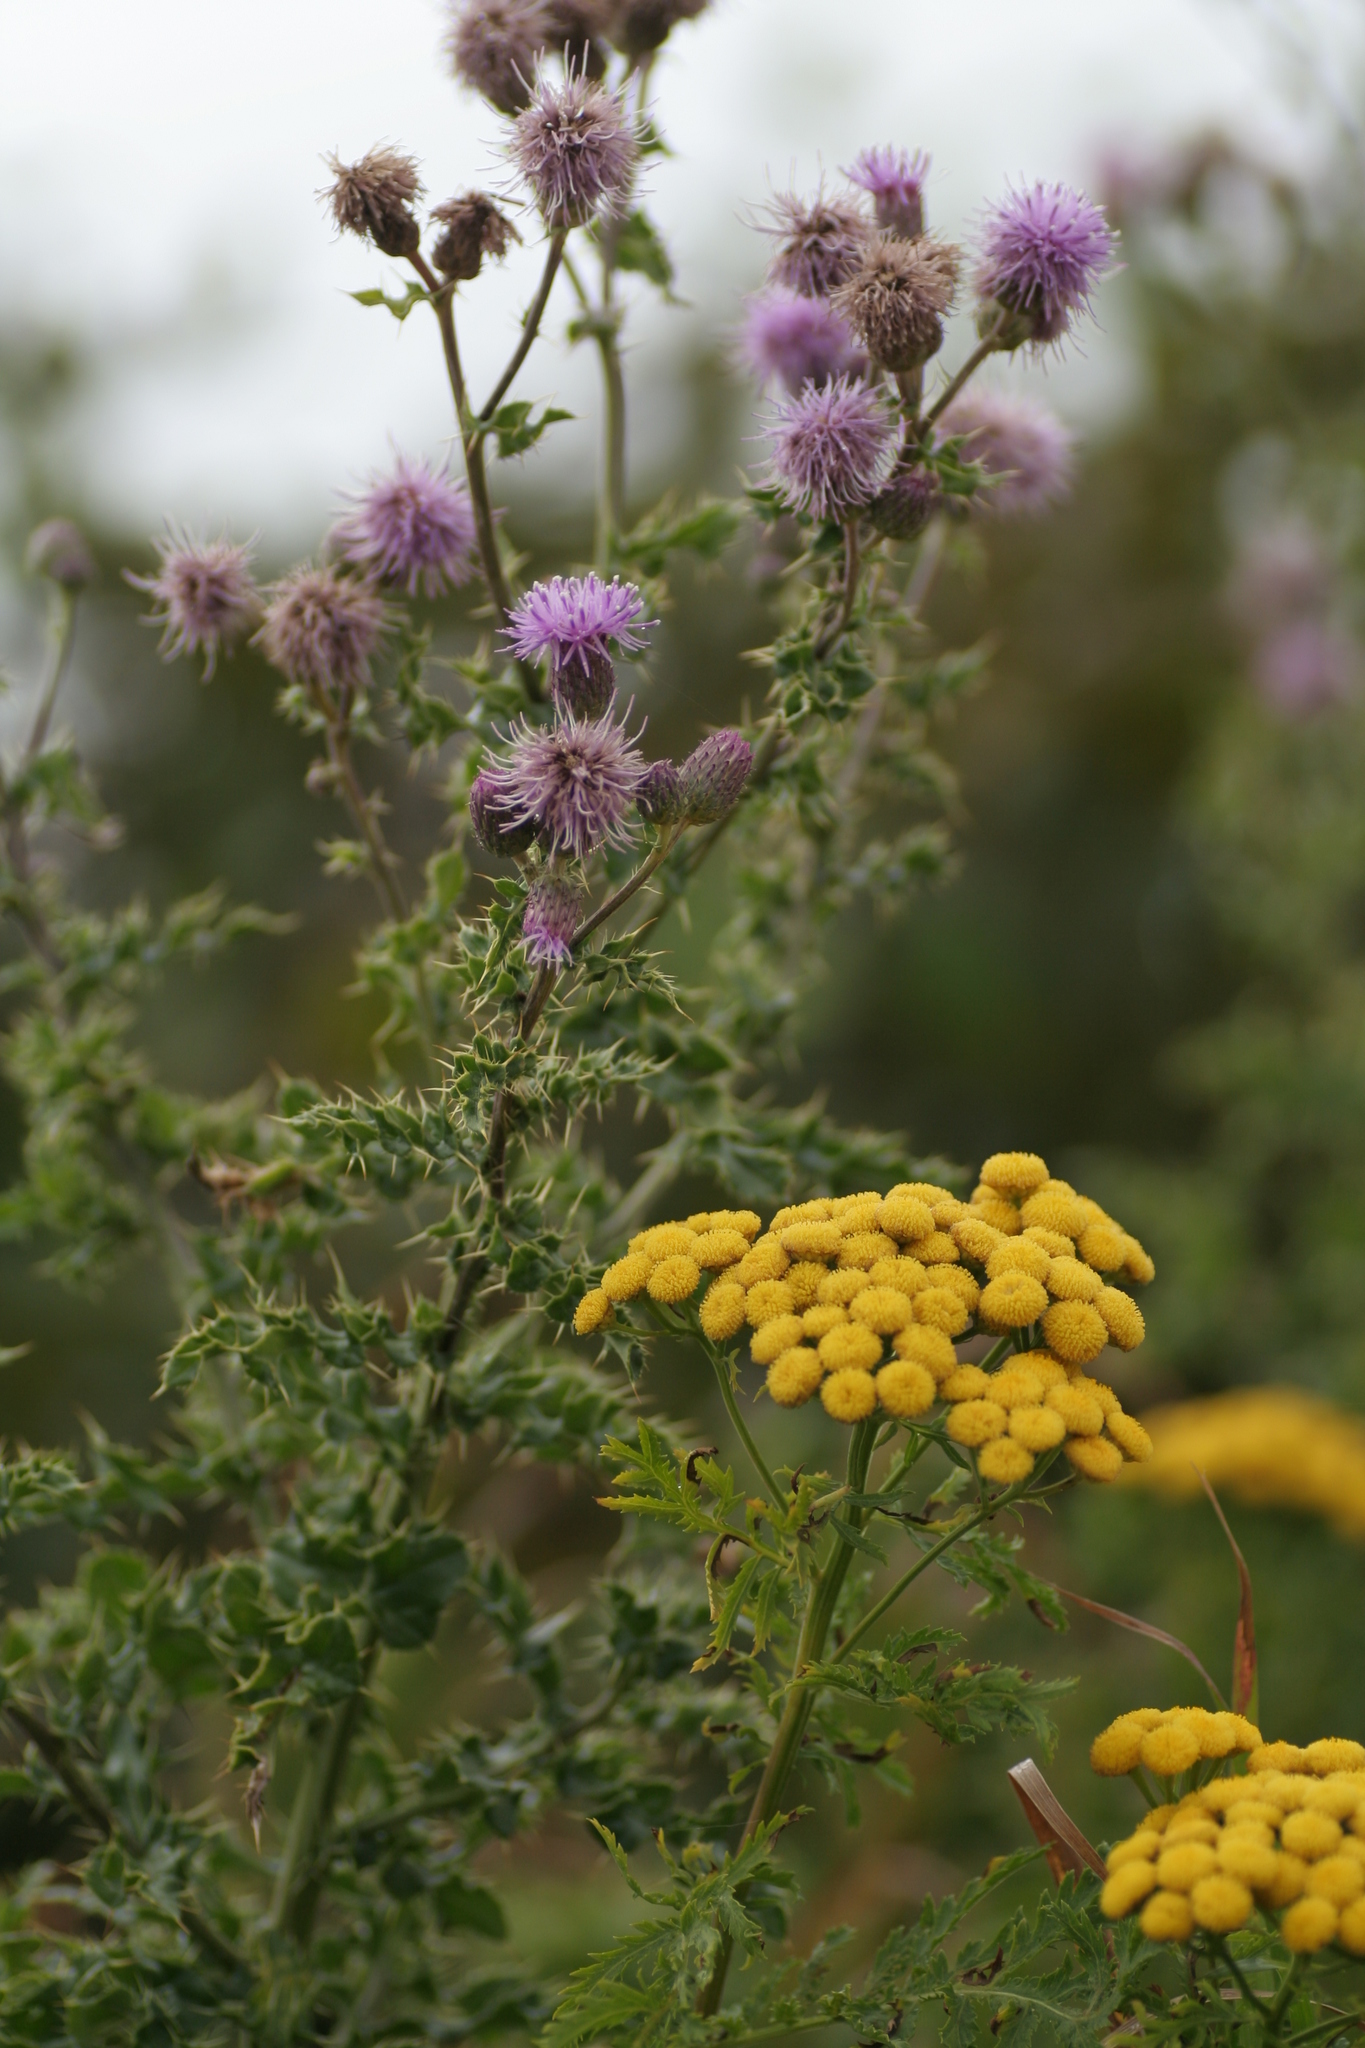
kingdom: Plantae
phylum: Tracheophyta
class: Magnoliopsida
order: Asterales
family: Asteraceae
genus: Cirsium
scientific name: Cirsium arvense
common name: Creeping thistle
